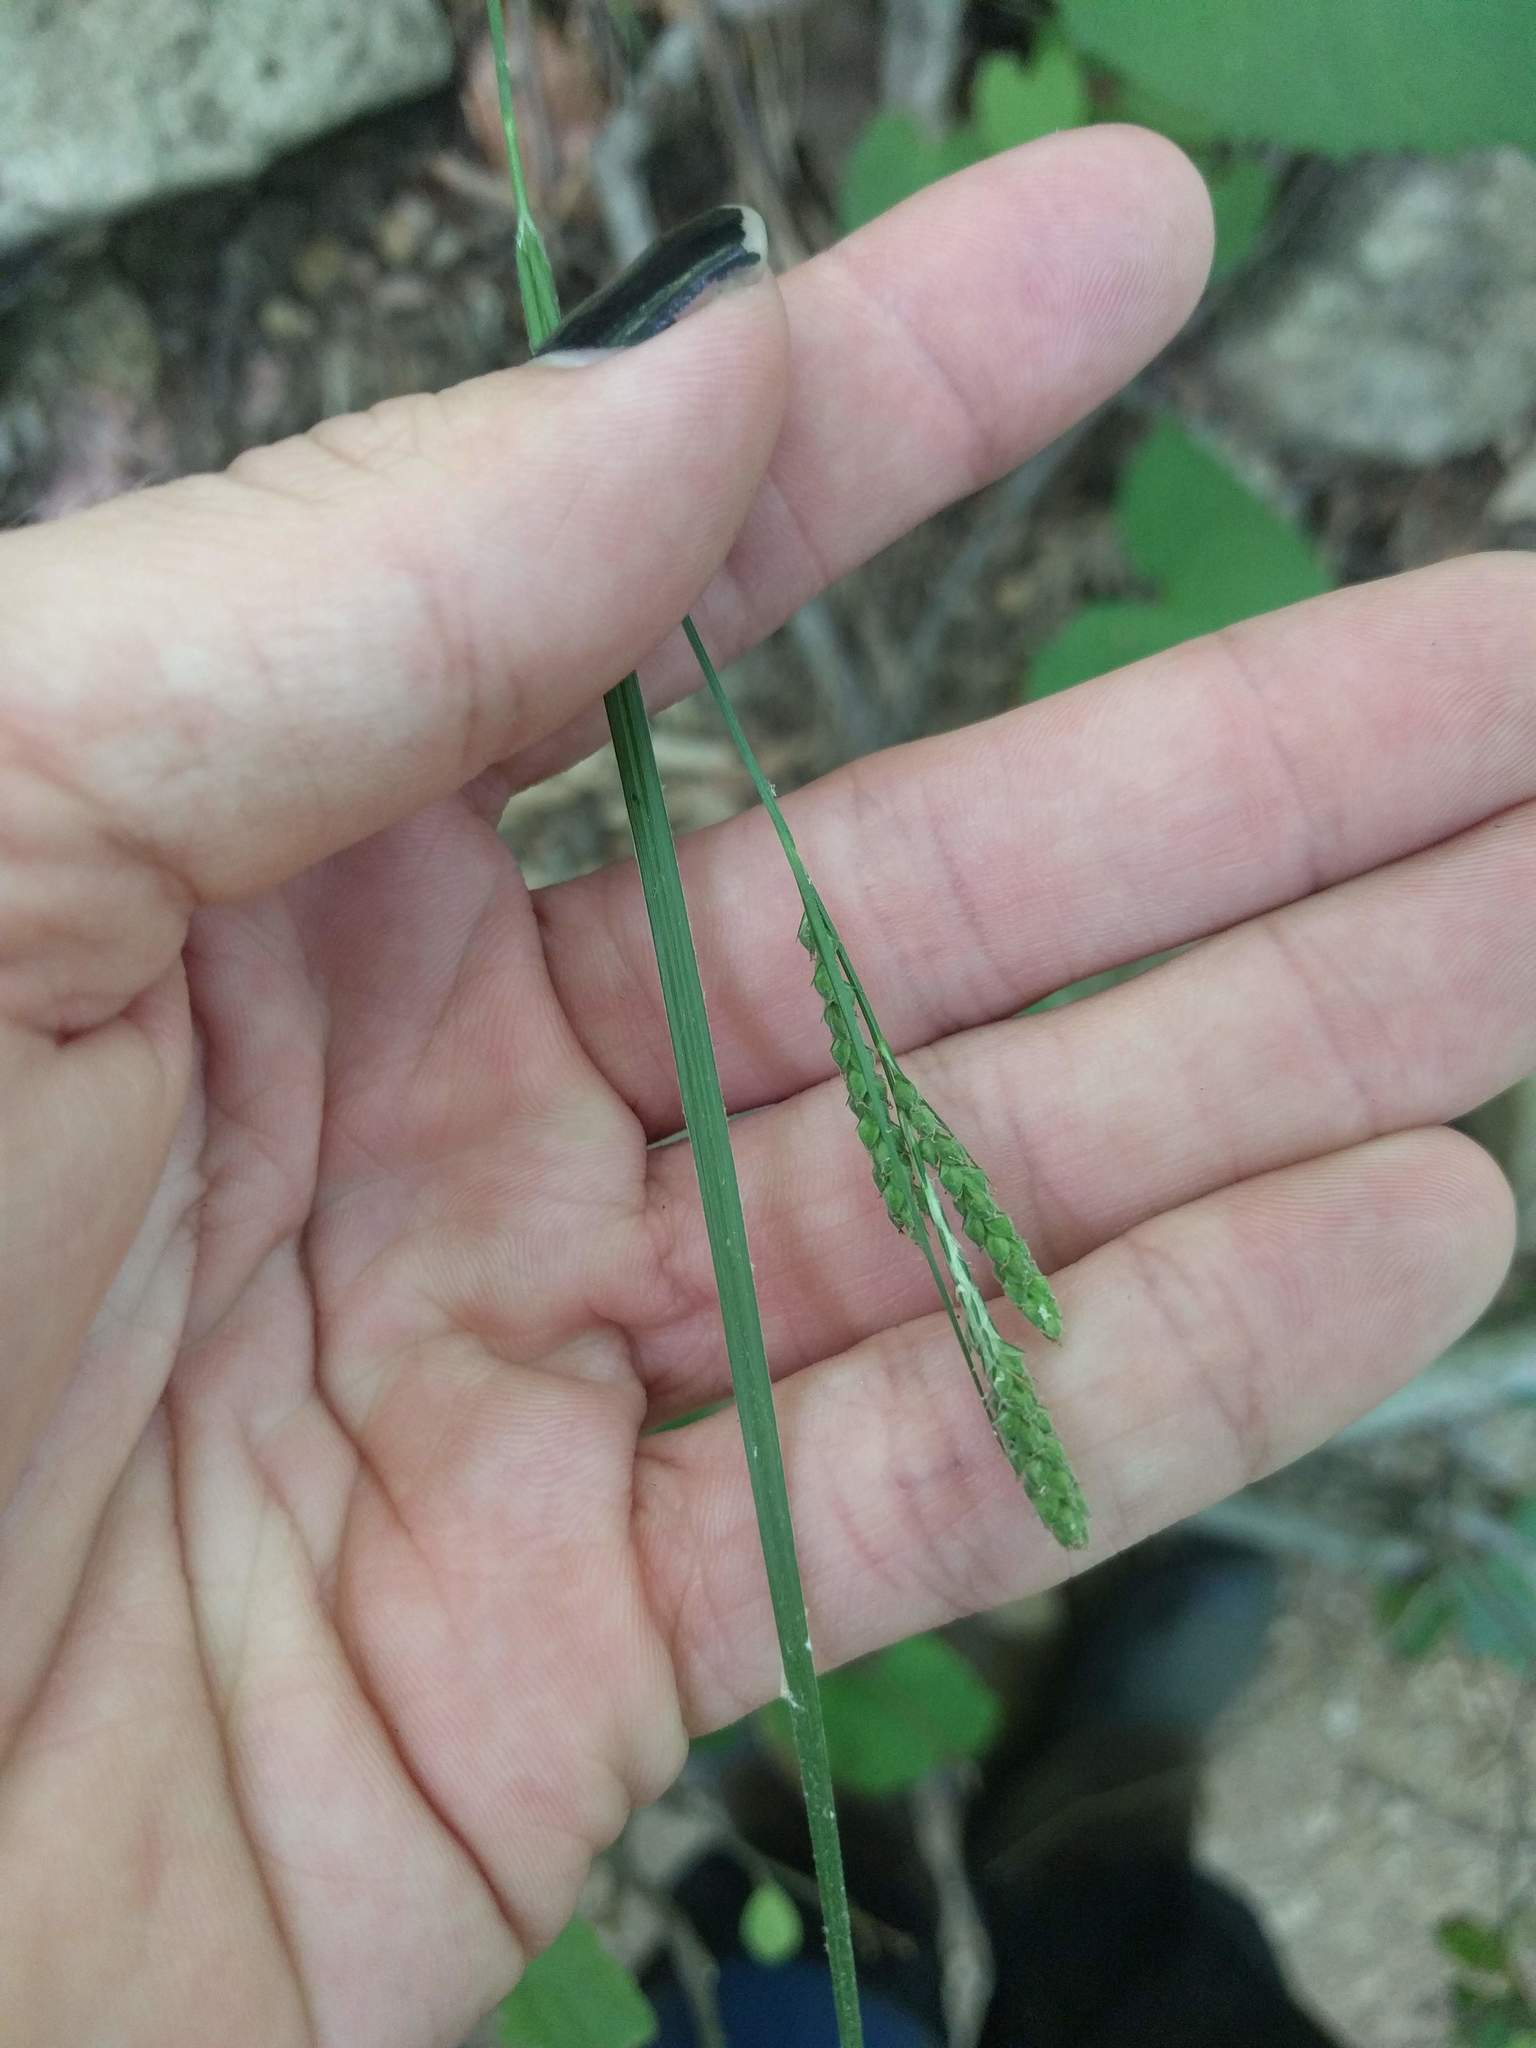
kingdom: Plantae
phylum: Tracheophyta
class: Liliopsida
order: Poales
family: Cyperaceae
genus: Carex
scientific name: Carex virescens
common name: Ribbed sedge
